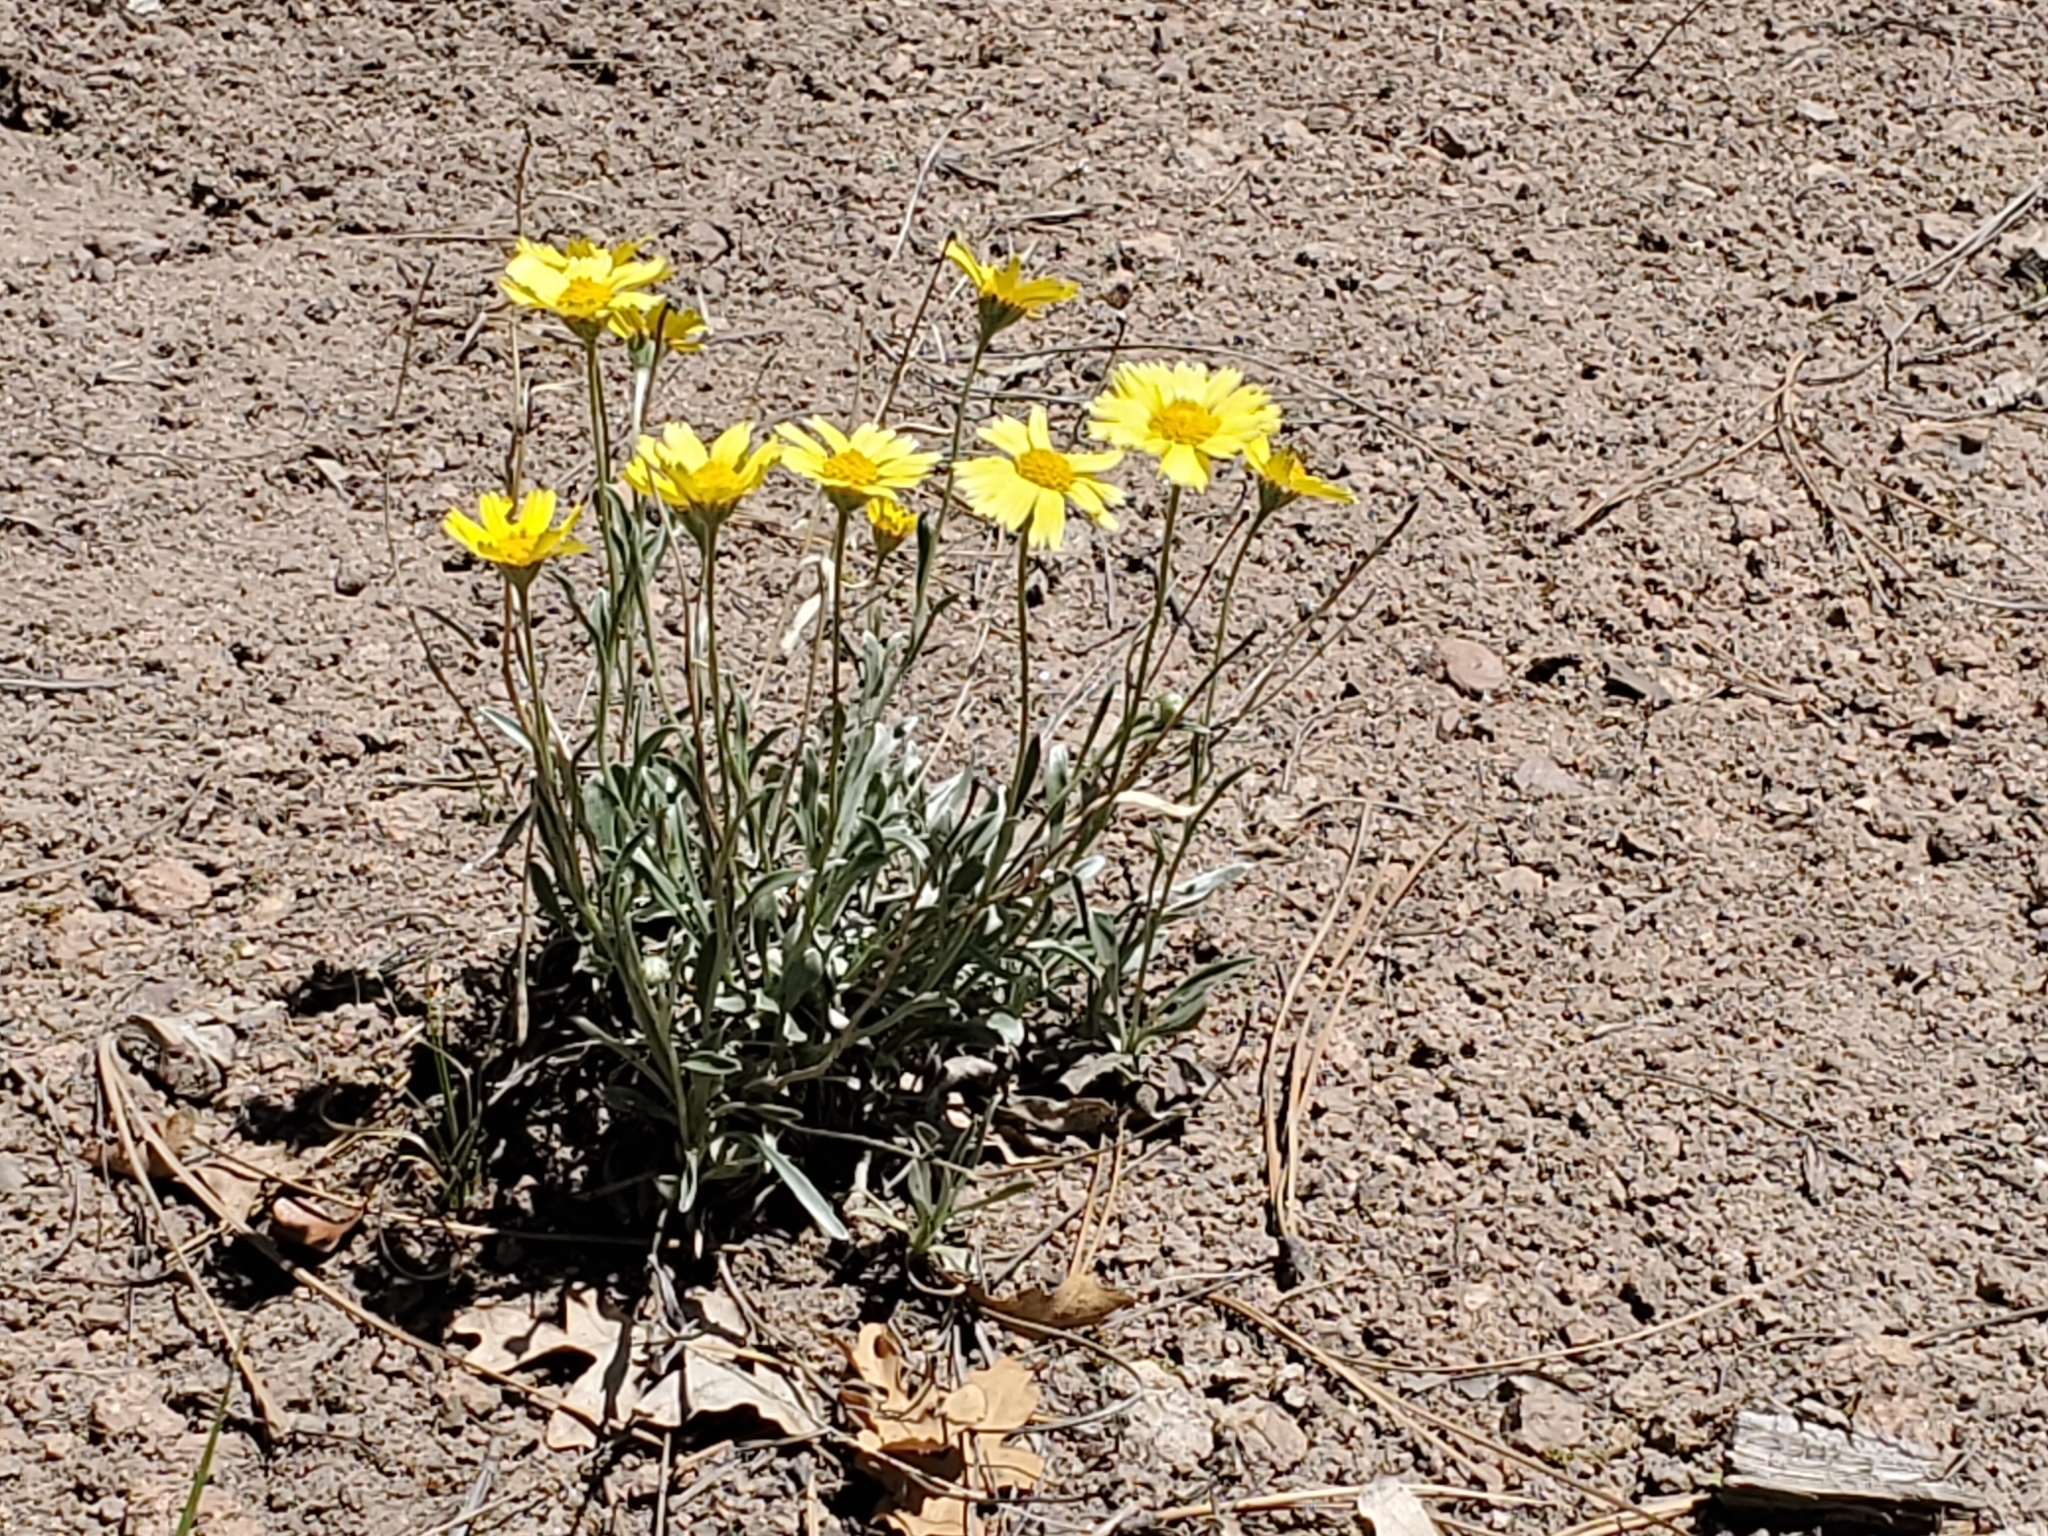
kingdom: Plantae
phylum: Tracheophyta
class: Magnoliopsida
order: Asterales
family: Asteraceae
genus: Tetraneuris
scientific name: Tetraneuris argentea
